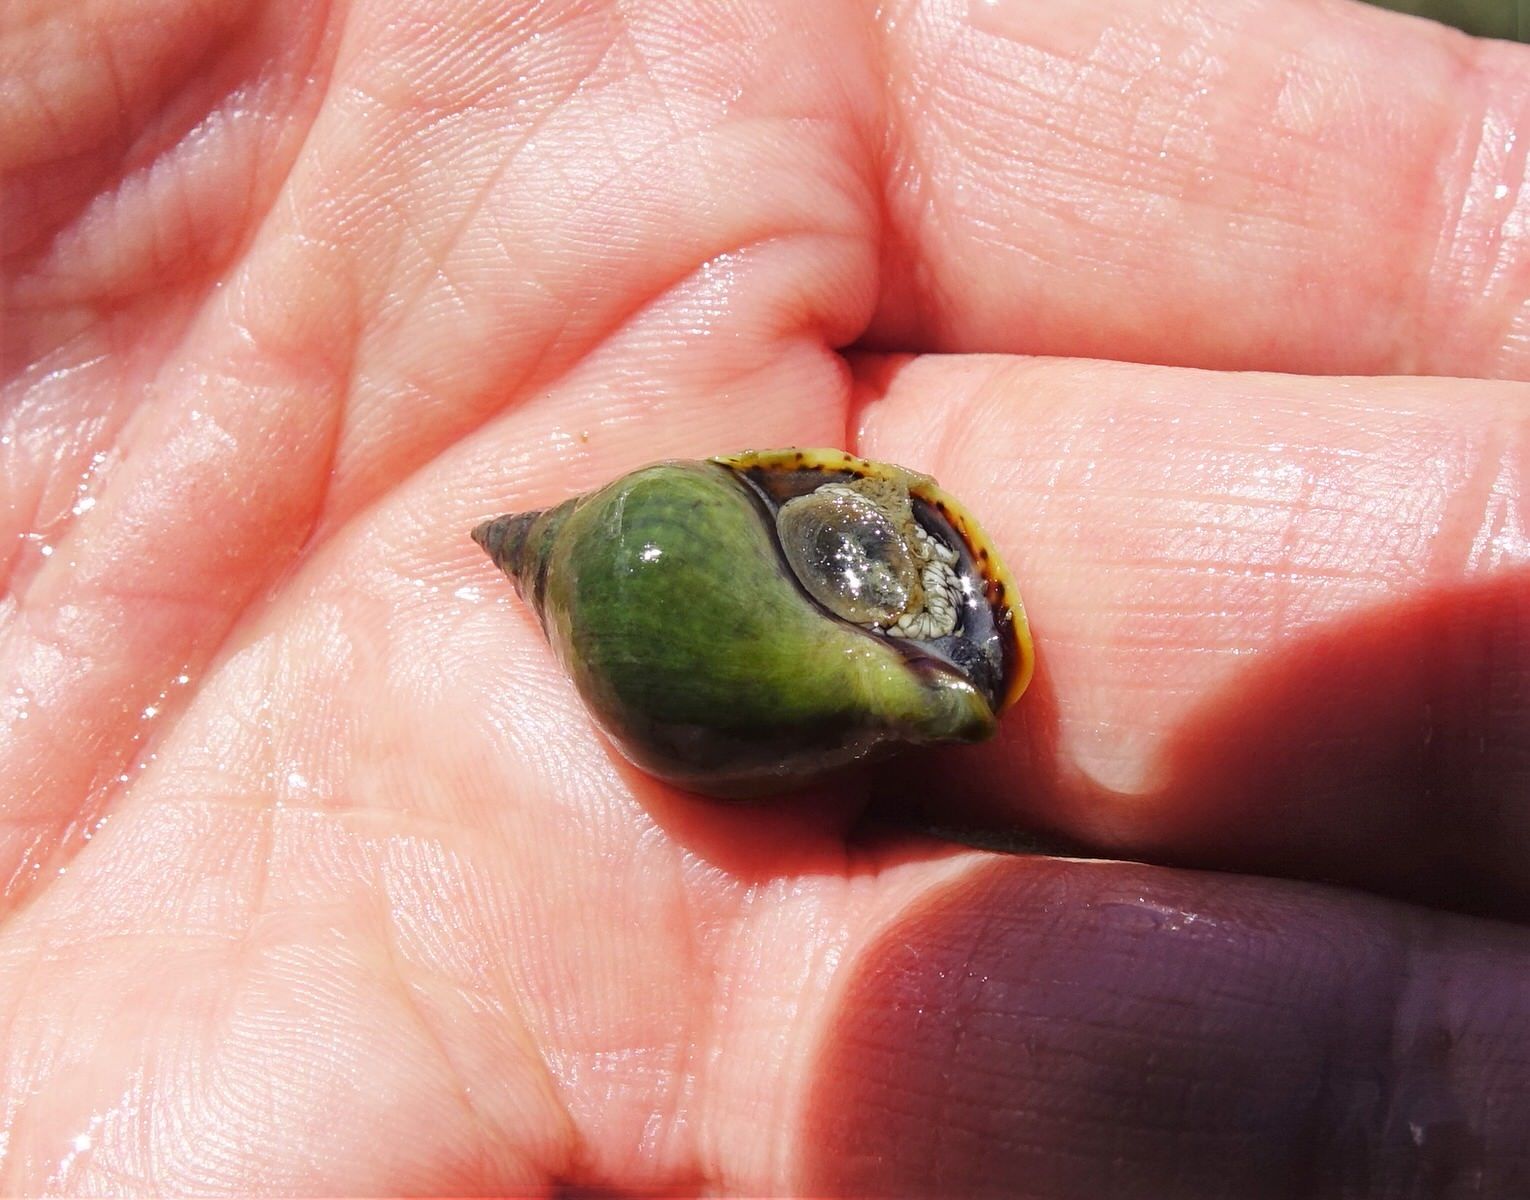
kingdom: Animalia
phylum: Mollusca
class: Gastropoda
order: Neogastropoda
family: Cominellidae
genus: Cominella
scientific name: Cominella adspersa
